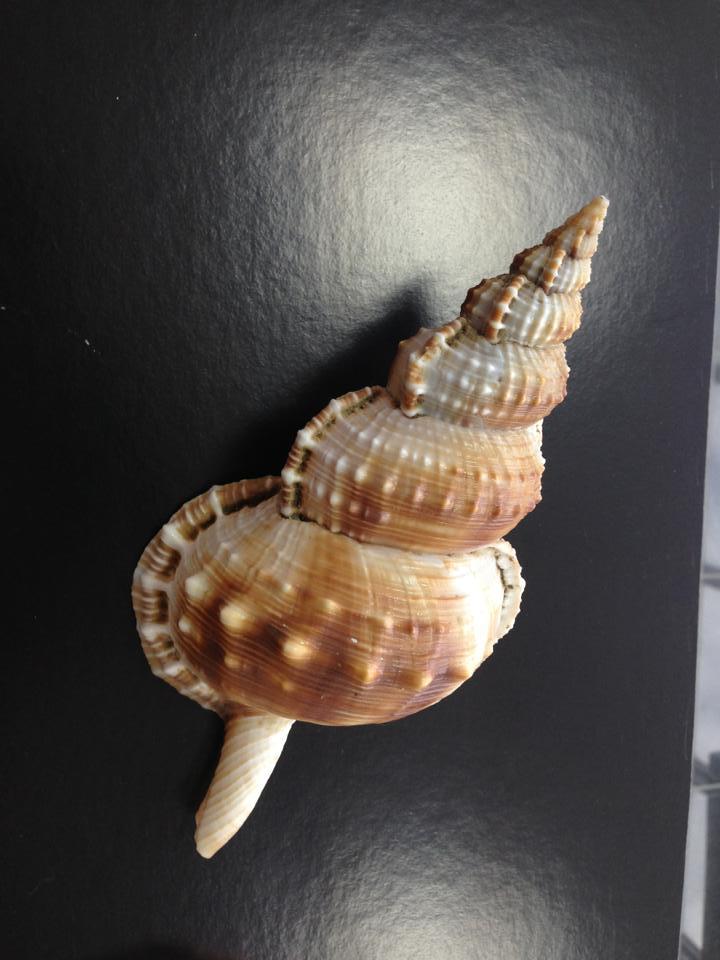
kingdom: Animalia
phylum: Mollusca
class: Gastropoda
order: Littorinimorpha
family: Ranellidae
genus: Ranella
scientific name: Ranella olearium
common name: Giant frogsnail
